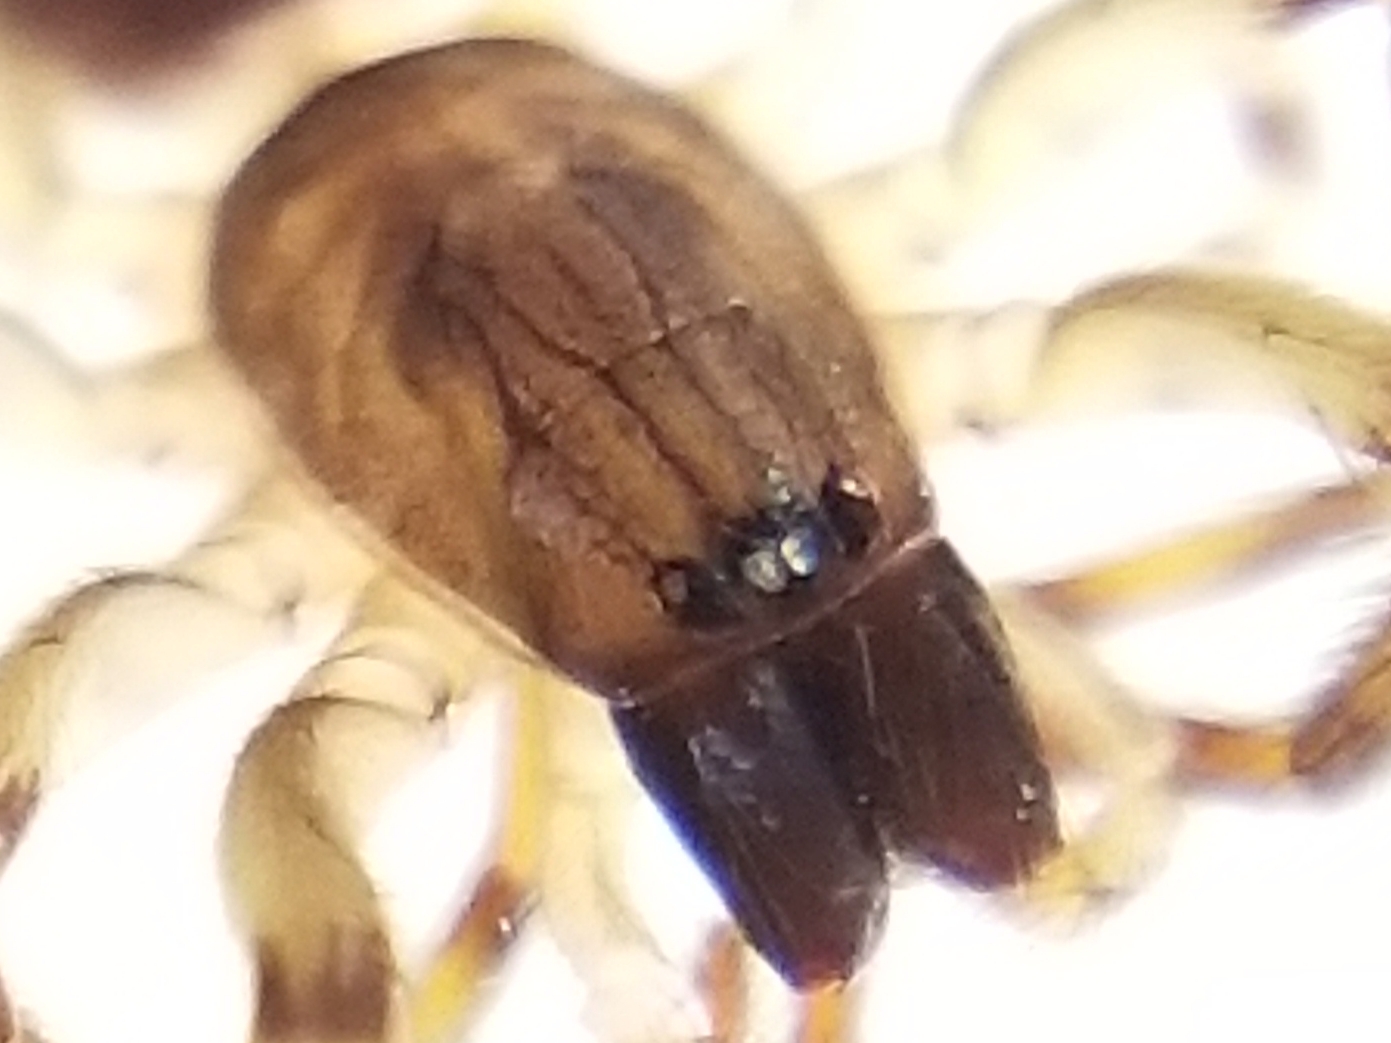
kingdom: Animalia
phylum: Arthropoda
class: Arachnida
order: Araneae
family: Segestriidae
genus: Segestria
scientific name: Segestria pacifica
